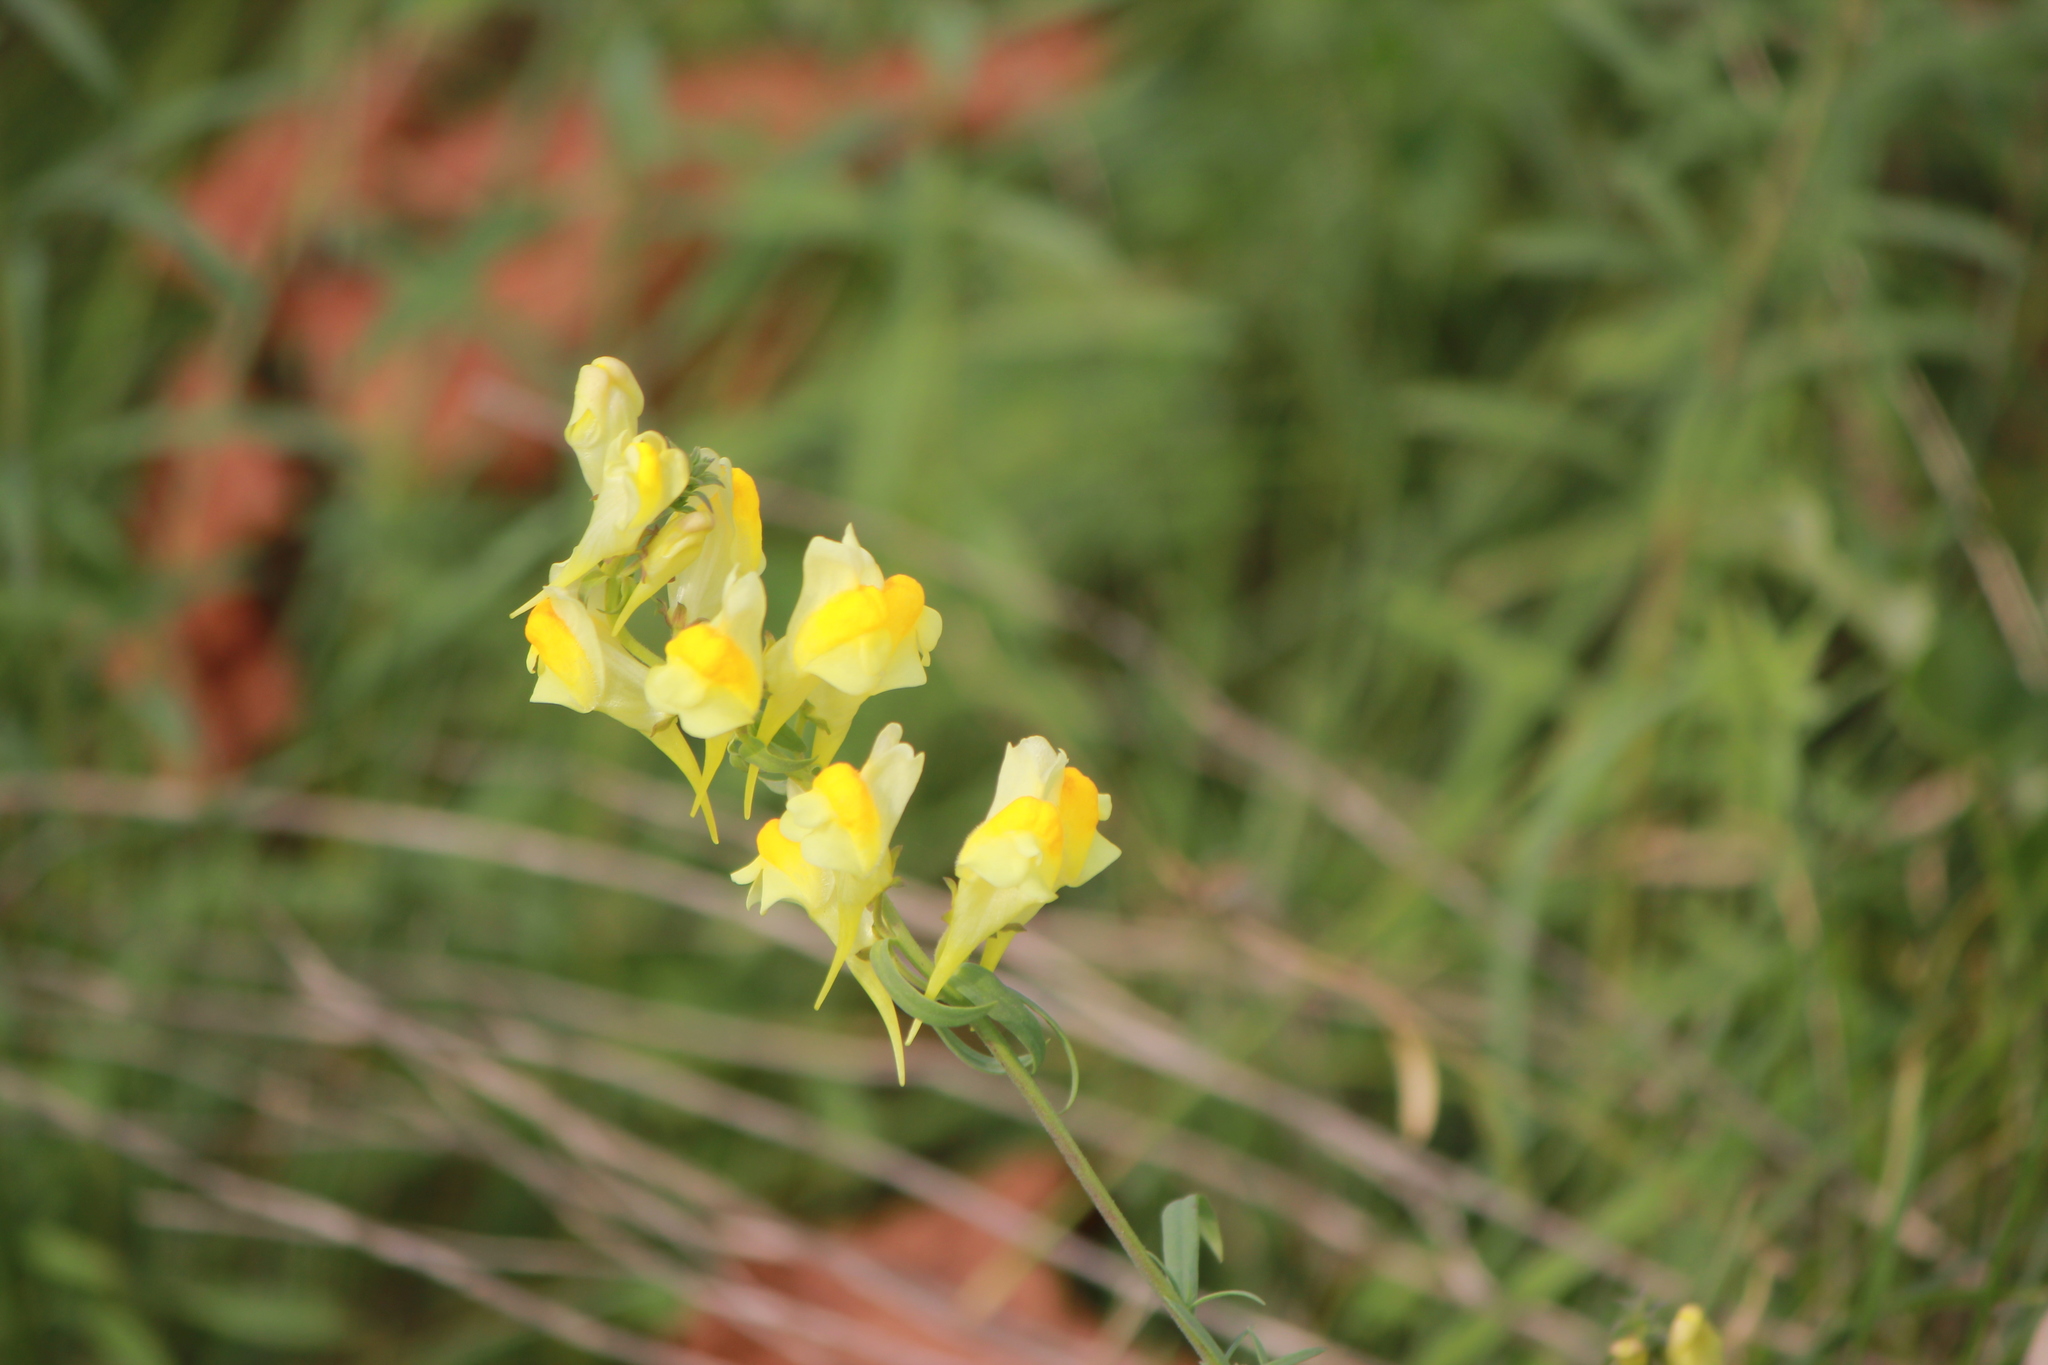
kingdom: Plantae
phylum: Tracheophyta
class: Magnoliopsida
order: Lamiales
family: Plantaginaceae
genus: Linaria
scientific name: Linaria vulgaris
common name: Butter and eggs
